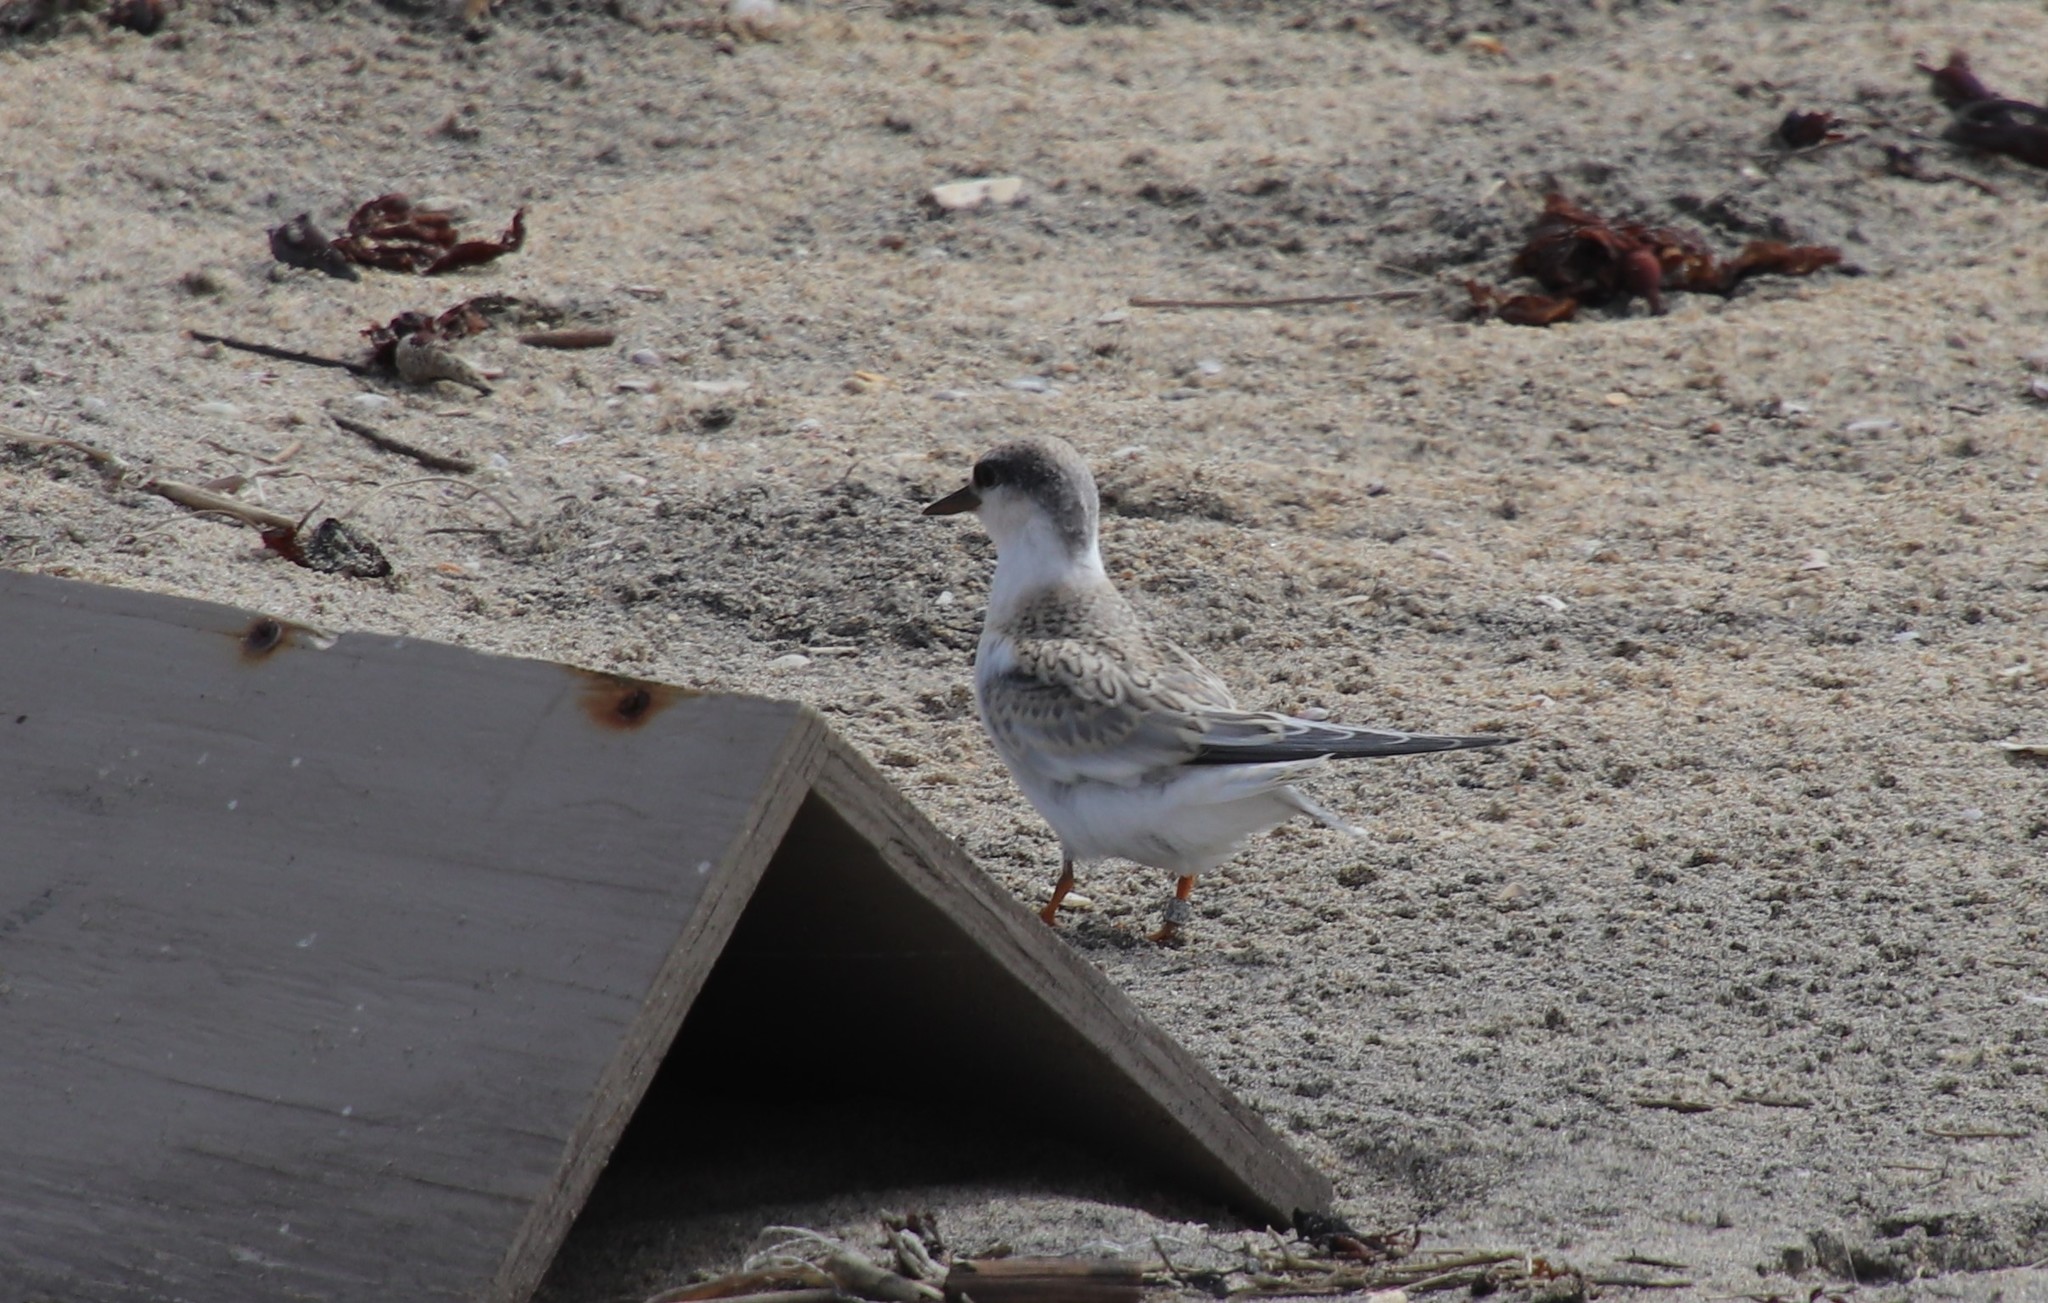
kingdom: Animalia
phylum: Chordata
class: Aves
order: Charadriiformes
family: Laridae
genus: Sternula
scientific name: Sternula antillarum
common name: Least tern
